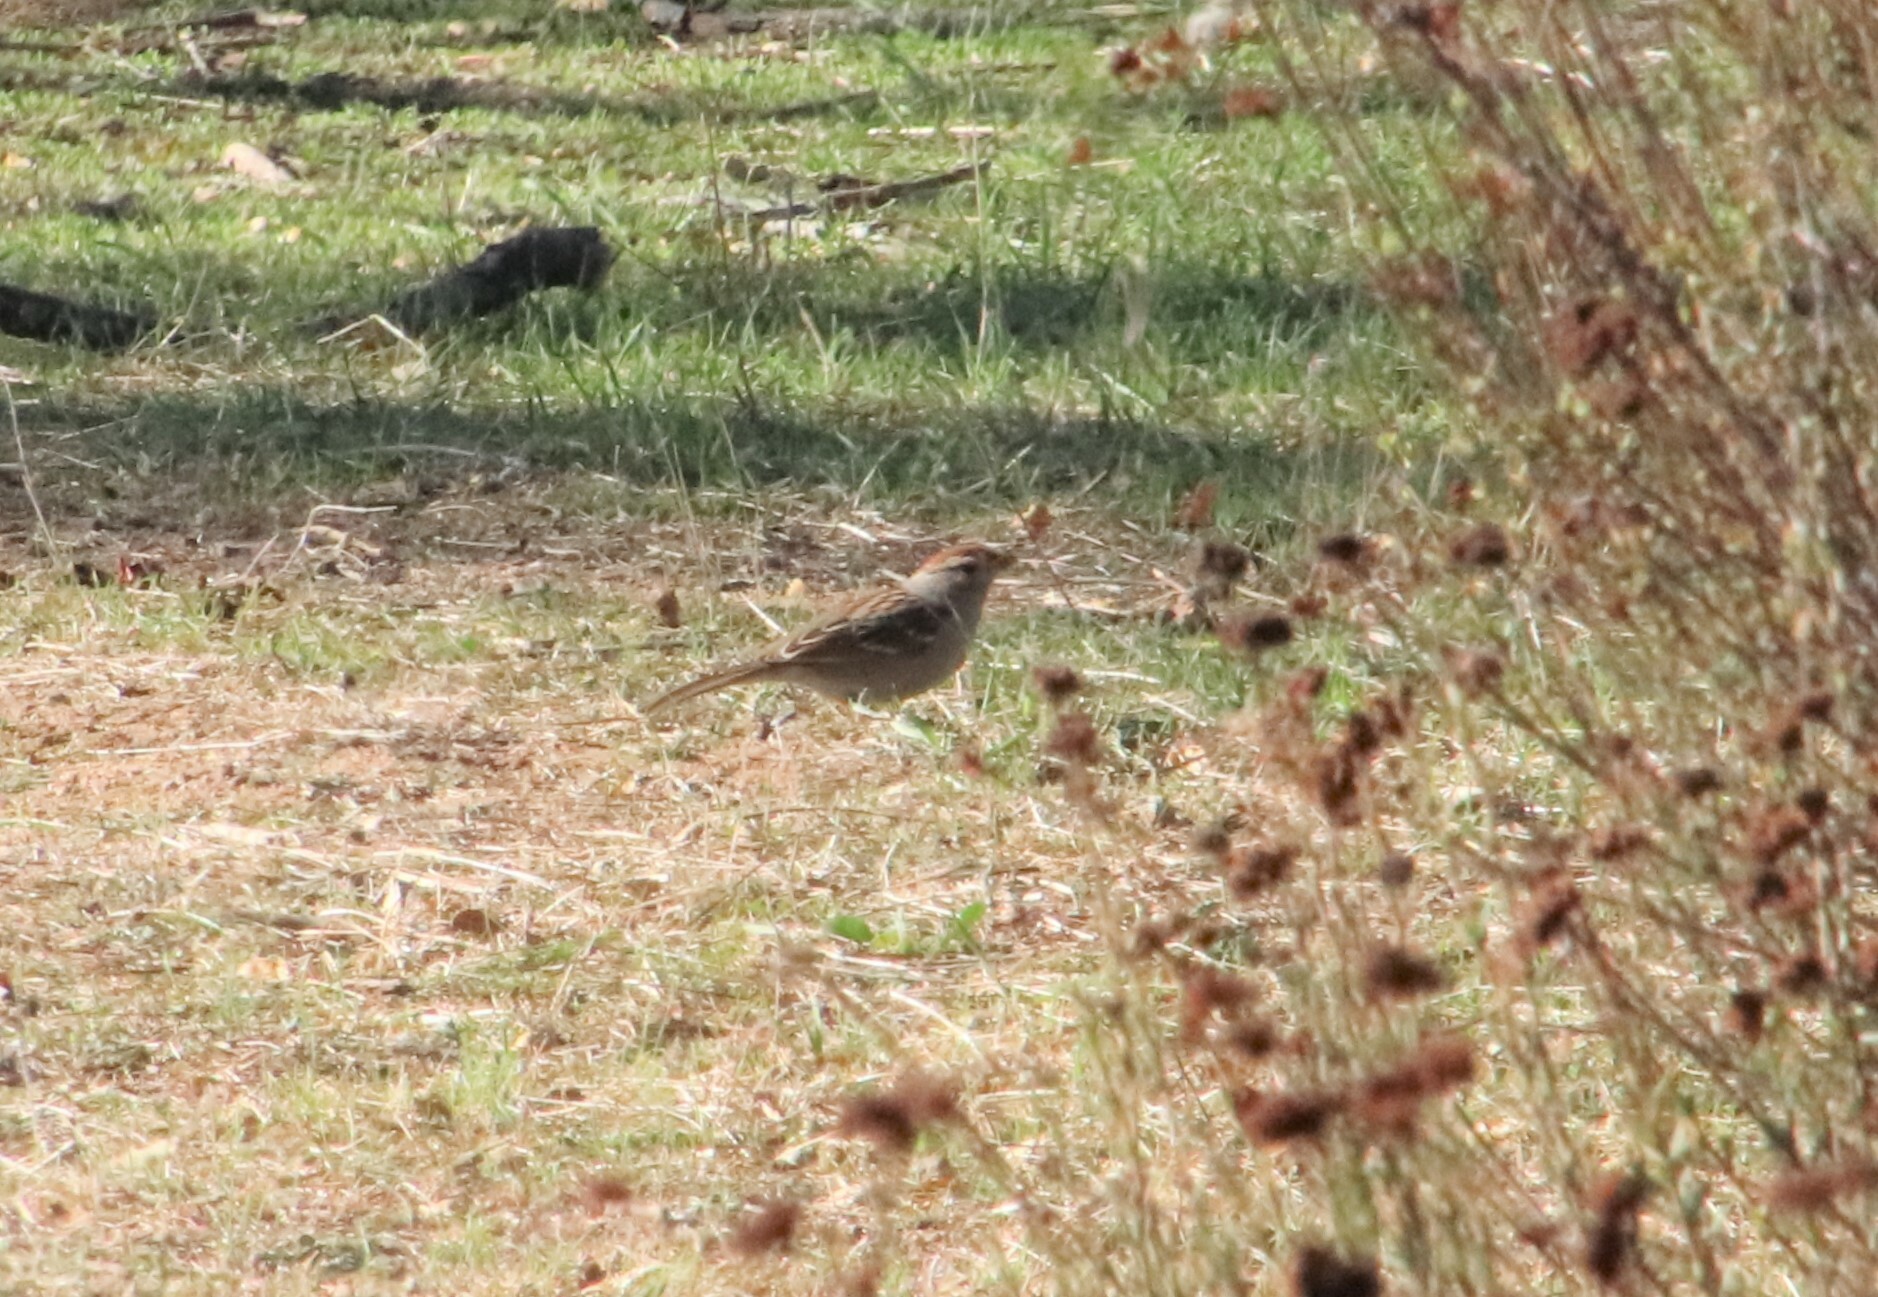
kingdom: Animalia
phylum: Chordata
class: Aves
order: Passeriformes
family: Passerellidae
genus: Zonotrichia
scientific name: Zonotrichia leucophrys
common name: White-crowned sparrow
